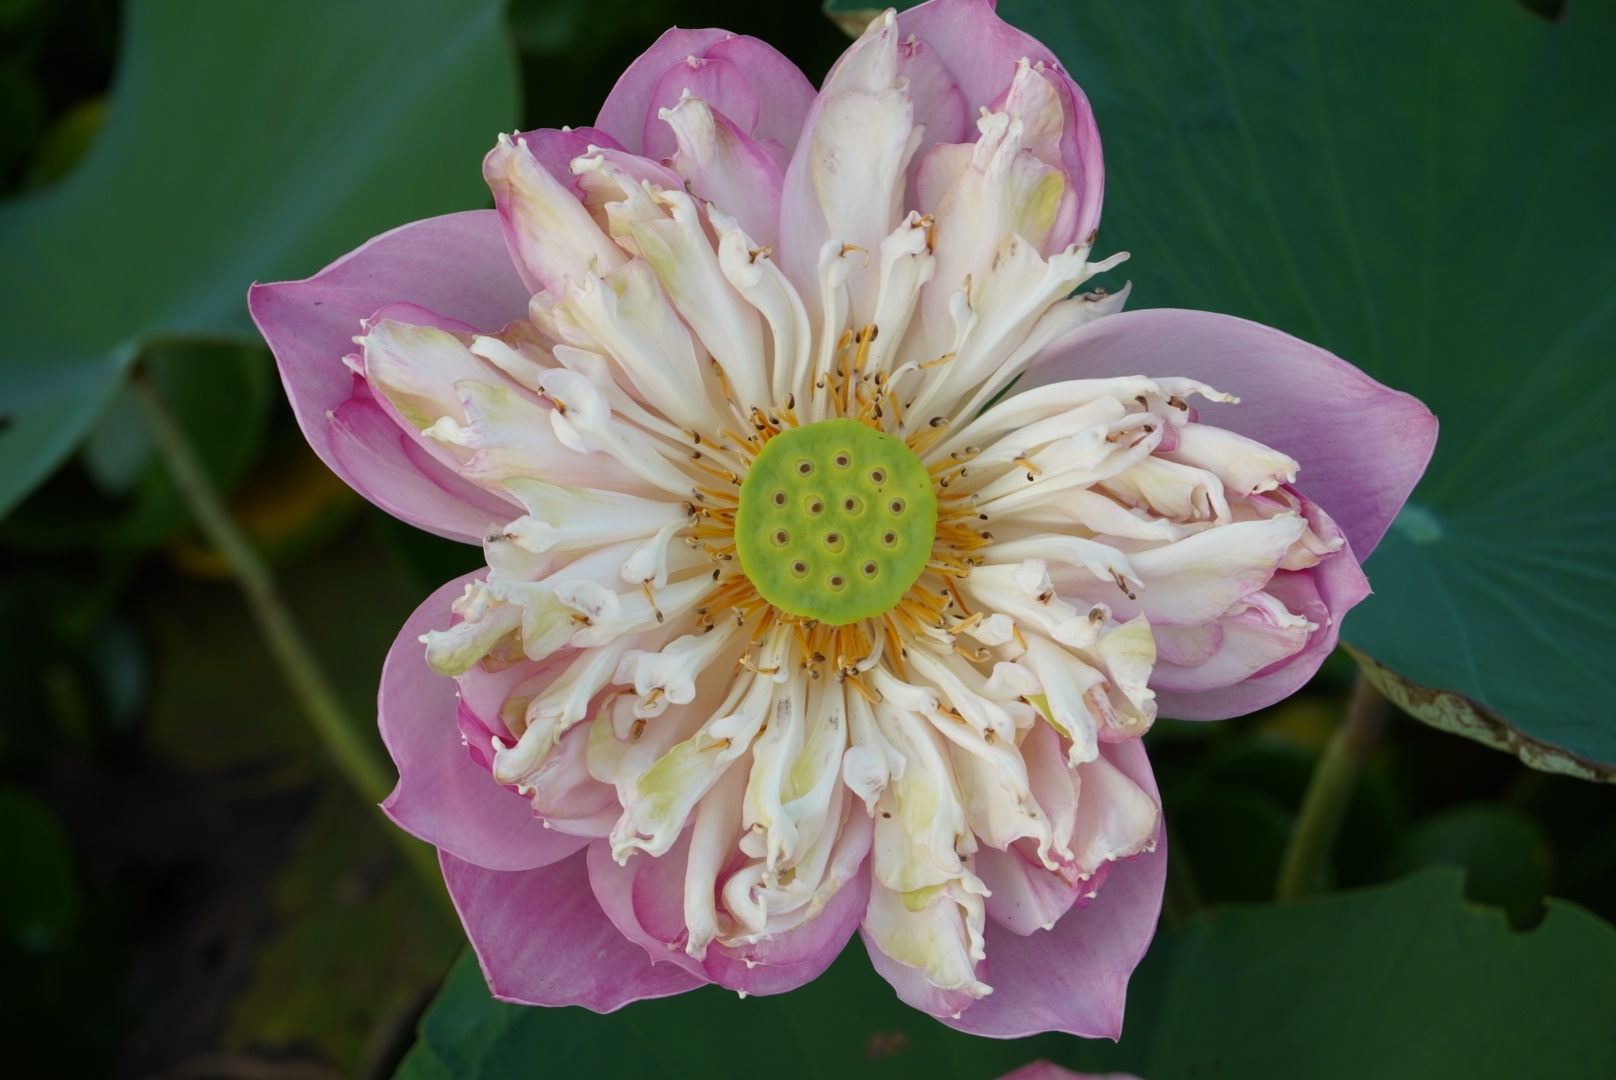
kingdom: Plantae
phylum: Tracheophyta
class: Magnoliopsida
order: Proteales
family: Nelumbonaceae
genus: Nelumbo
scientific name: Nelumbo nucifera
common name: Sacred lotus
